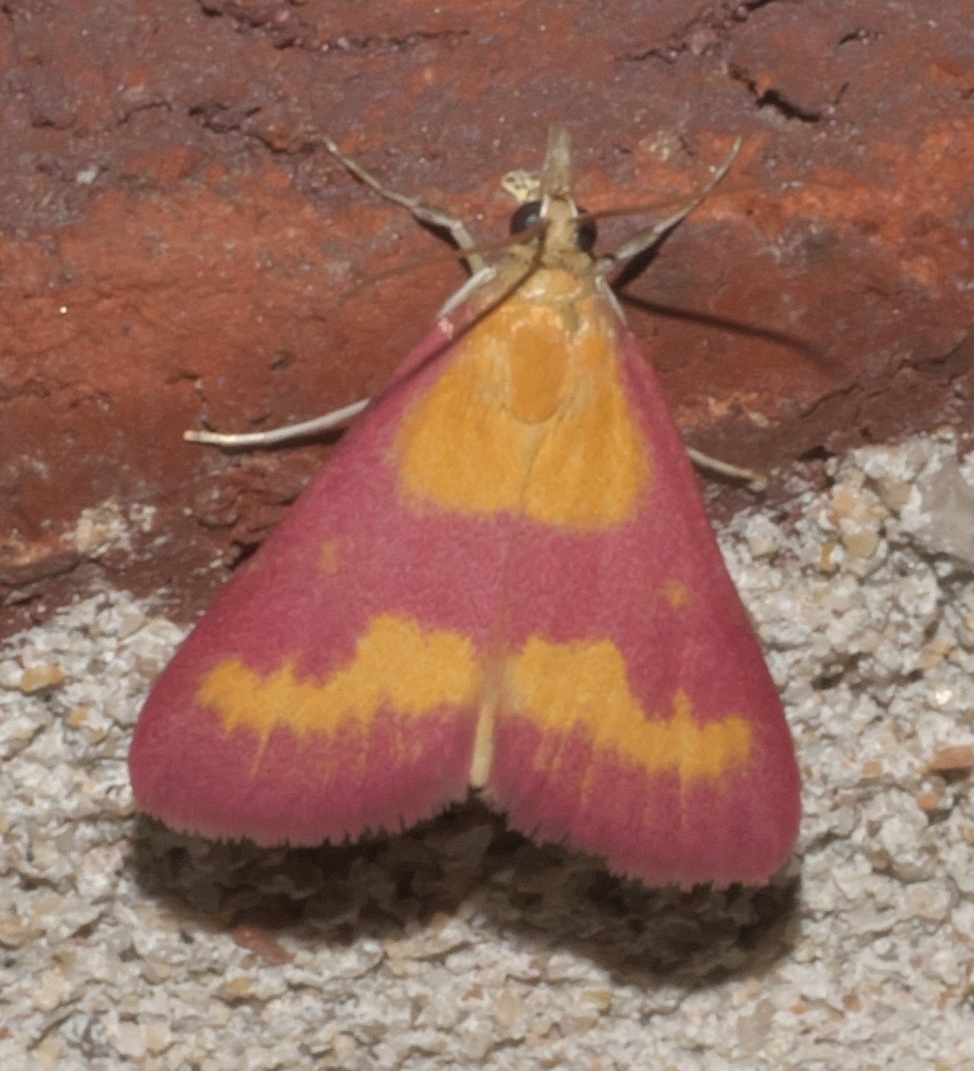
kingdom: Animalia
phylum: Arthropoda
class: Insecta
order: Lepidoptera
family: Crambidae
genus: Pyrausta
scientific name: Pyrausta laticlavia
